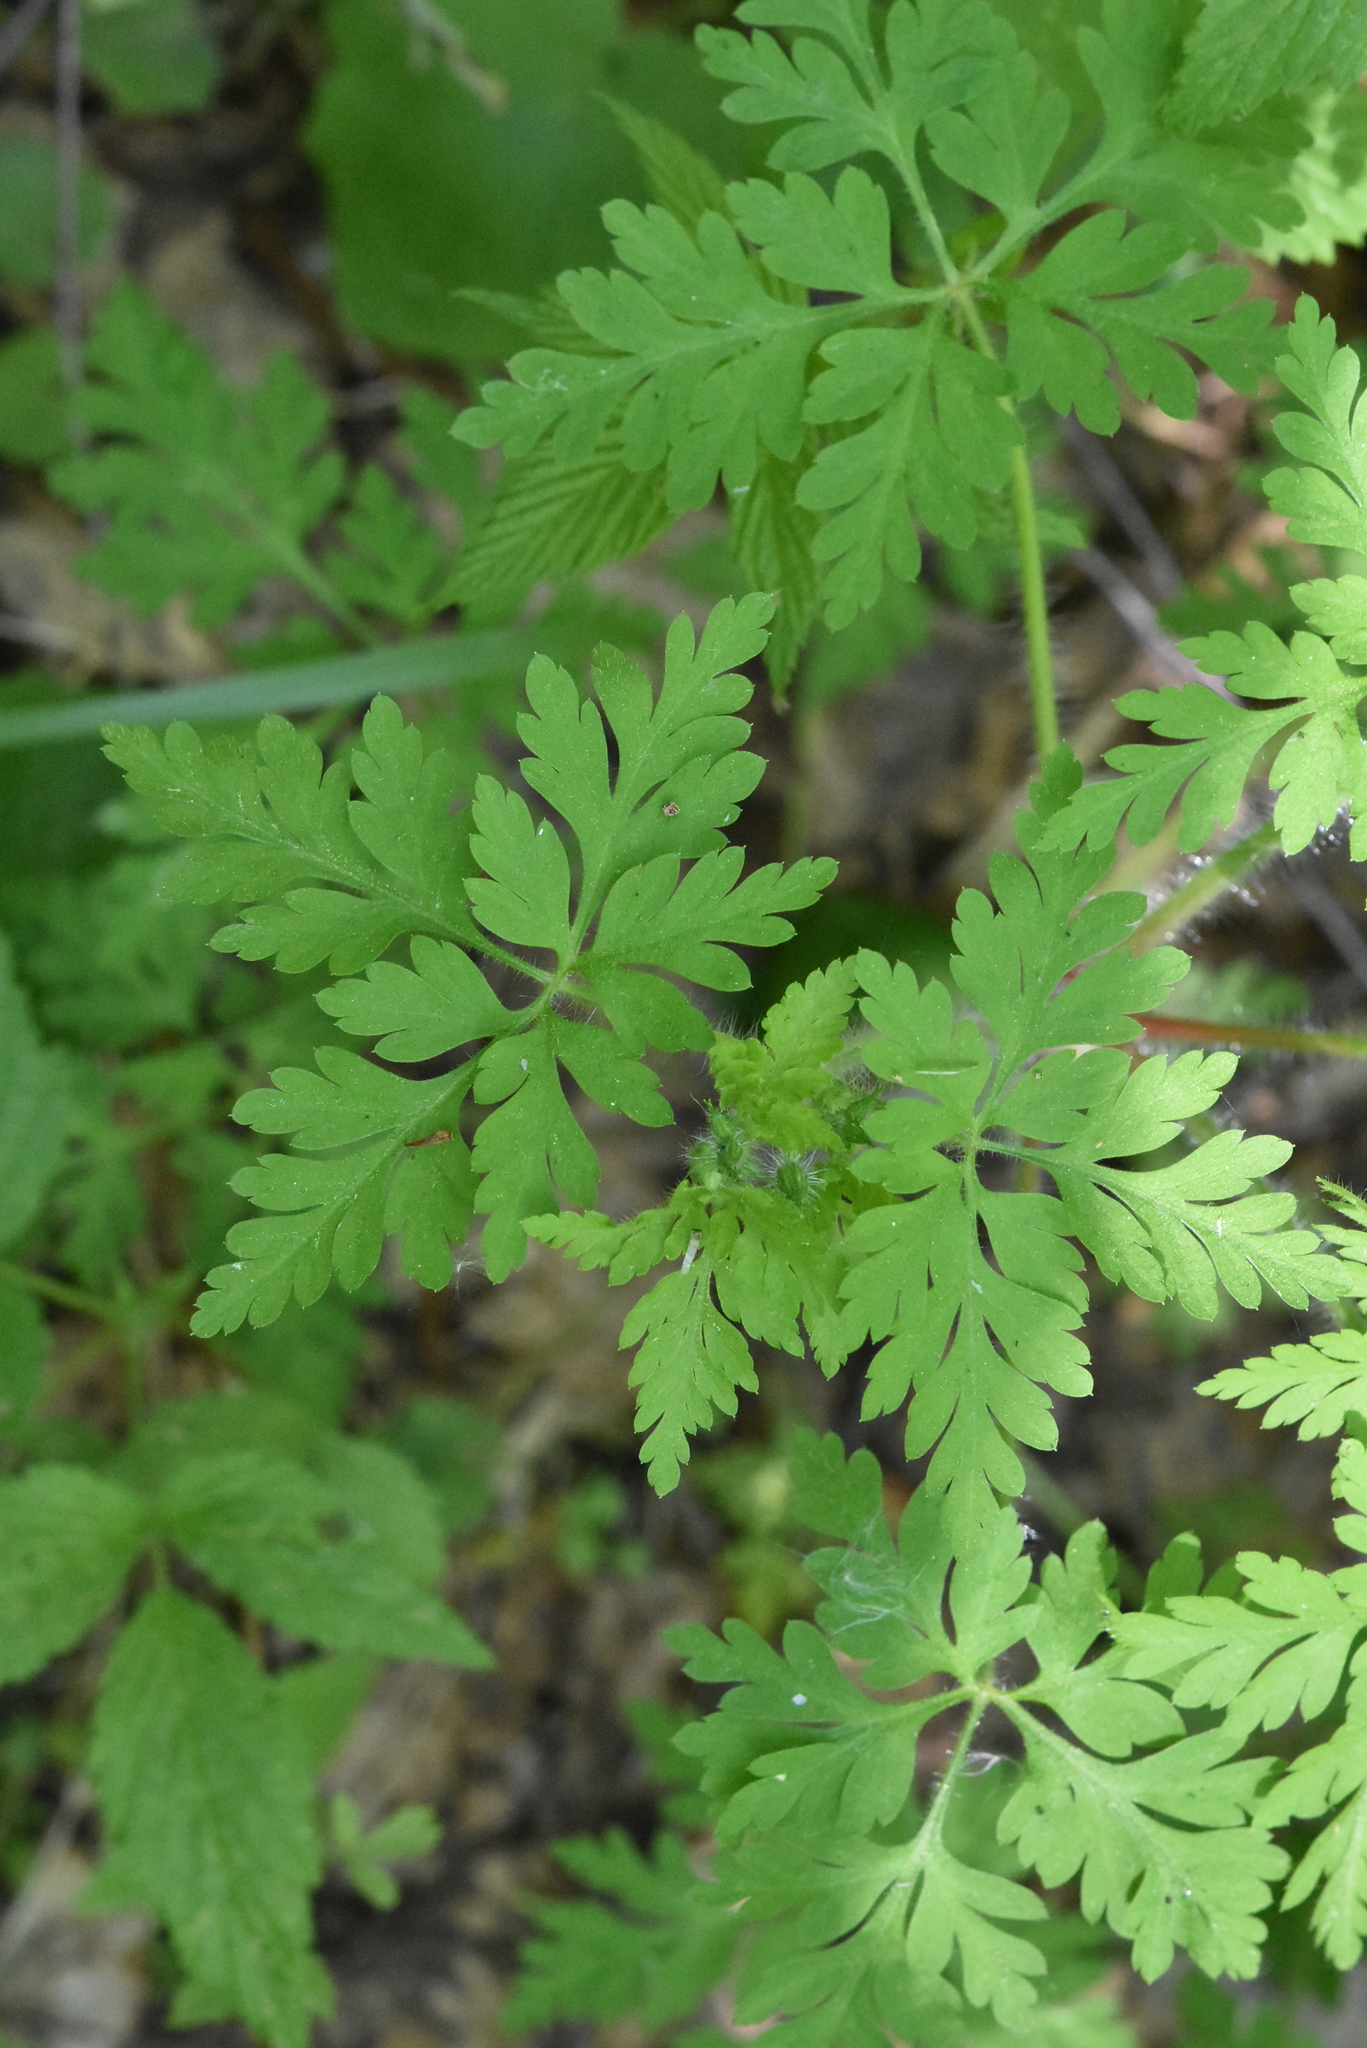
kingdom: Plantae
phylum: Tracheophyta
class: Magnoliopsida
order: Geraniales
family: Geraniaceae
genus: Geranium
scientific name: Geranium robertianum
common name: Herb-robert
